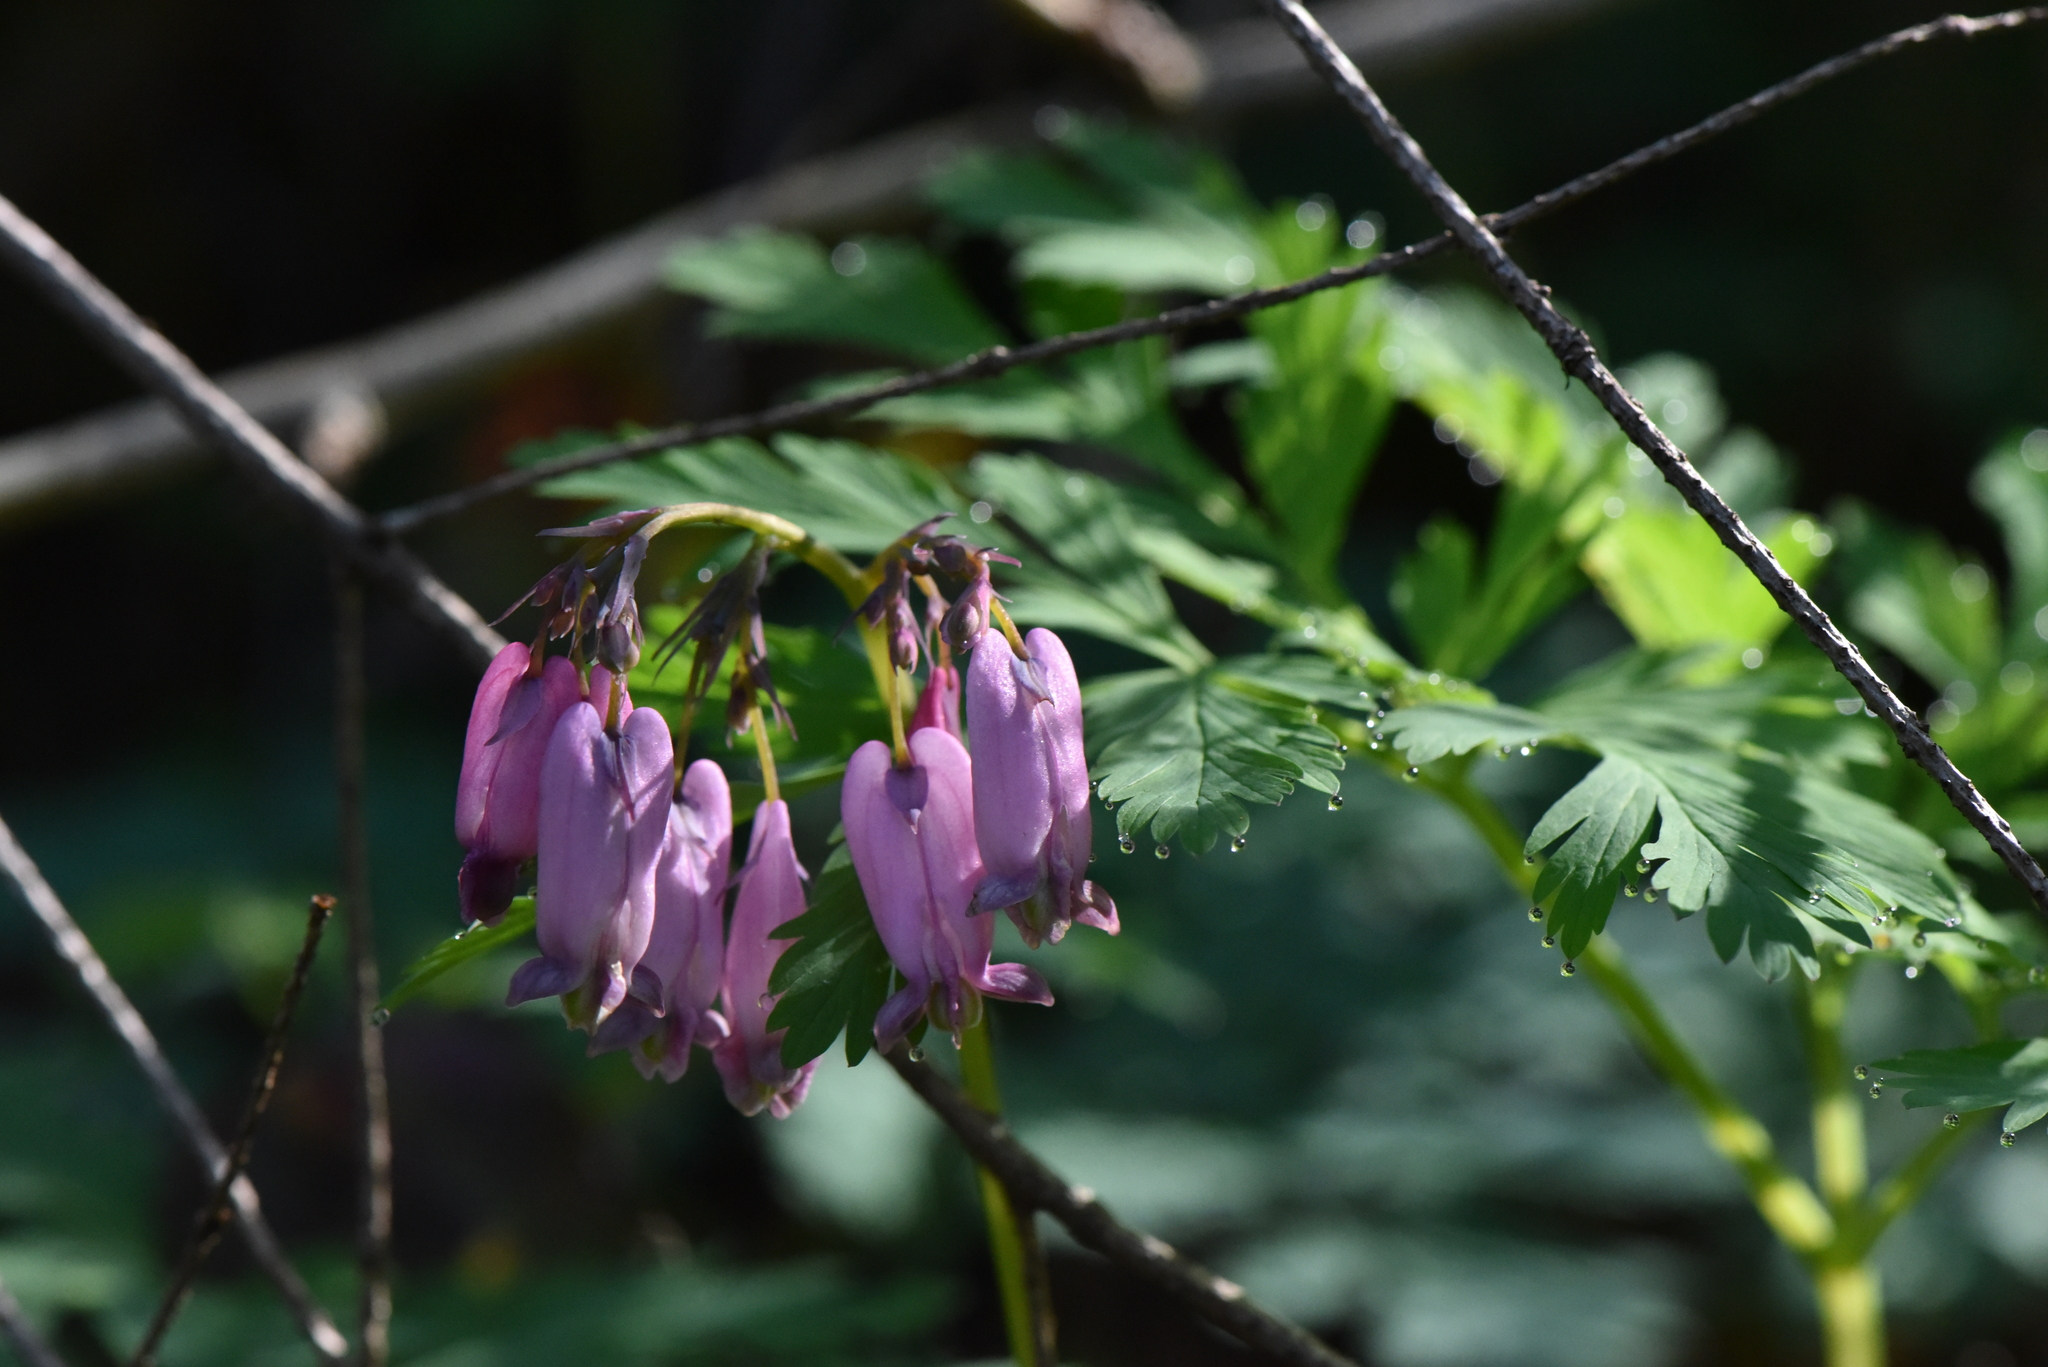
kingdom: Plantae
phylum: Tracheophyta
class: Magnoliopsida
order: Ranunculales
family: Papaveraceae
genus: Dicentra
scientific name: Dicentra formosa
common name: Bleeding-heart
